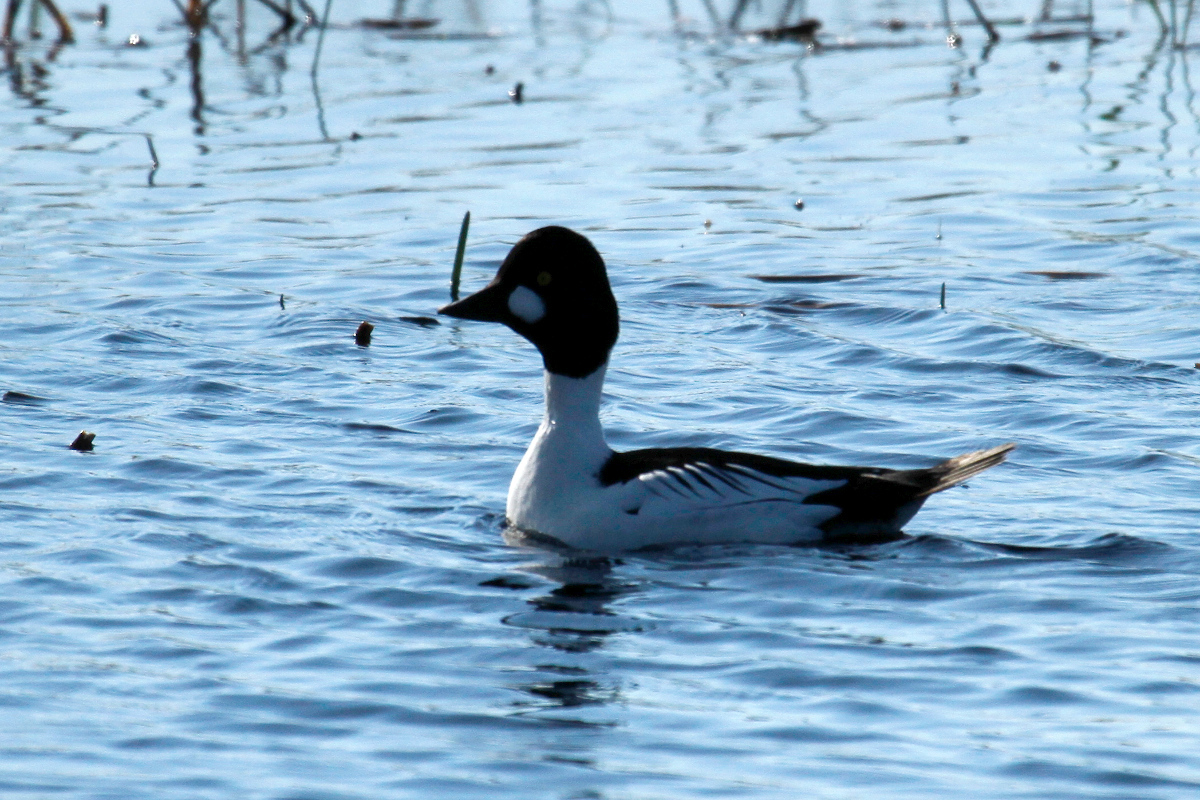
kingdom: Animalia
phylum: Chordata
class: Aves
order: Anseriformes
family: Anatidae
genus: Bucephala
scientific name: Bucephala clangula
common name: Common goldeneye
